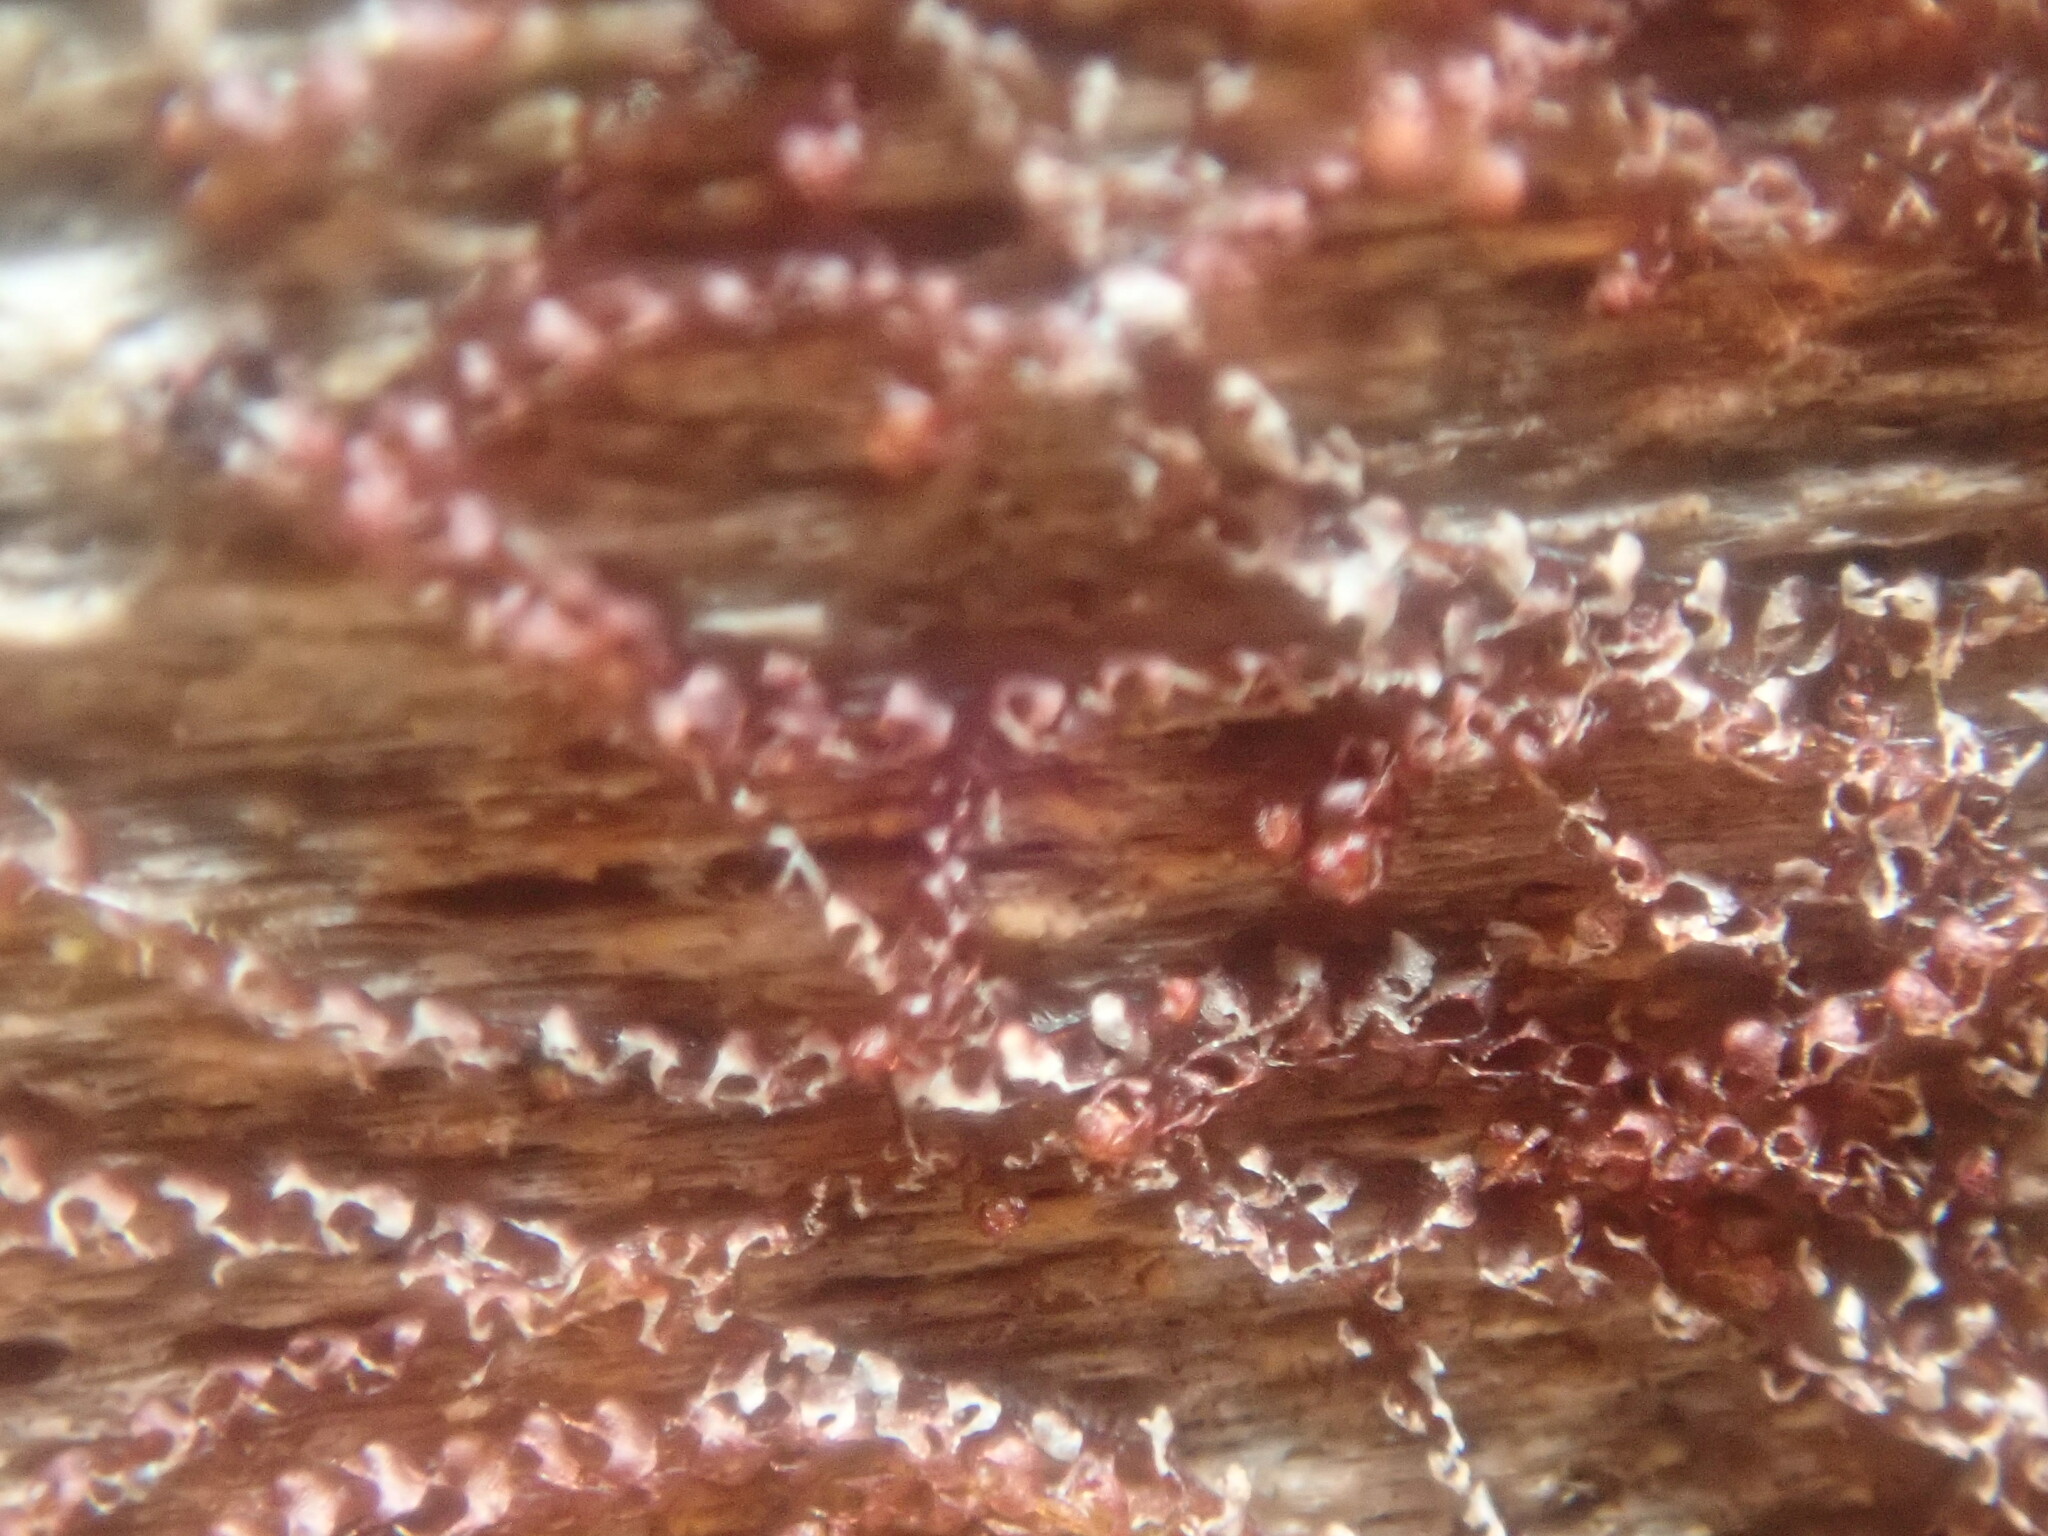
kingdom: Plantae
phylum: Marchantiophyta
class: Jungermanniopsida
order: Jungermanniales
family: Cephaloziaceae
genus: Nowellia
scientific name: Nowellia curvifolia
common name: Wood rustwort
